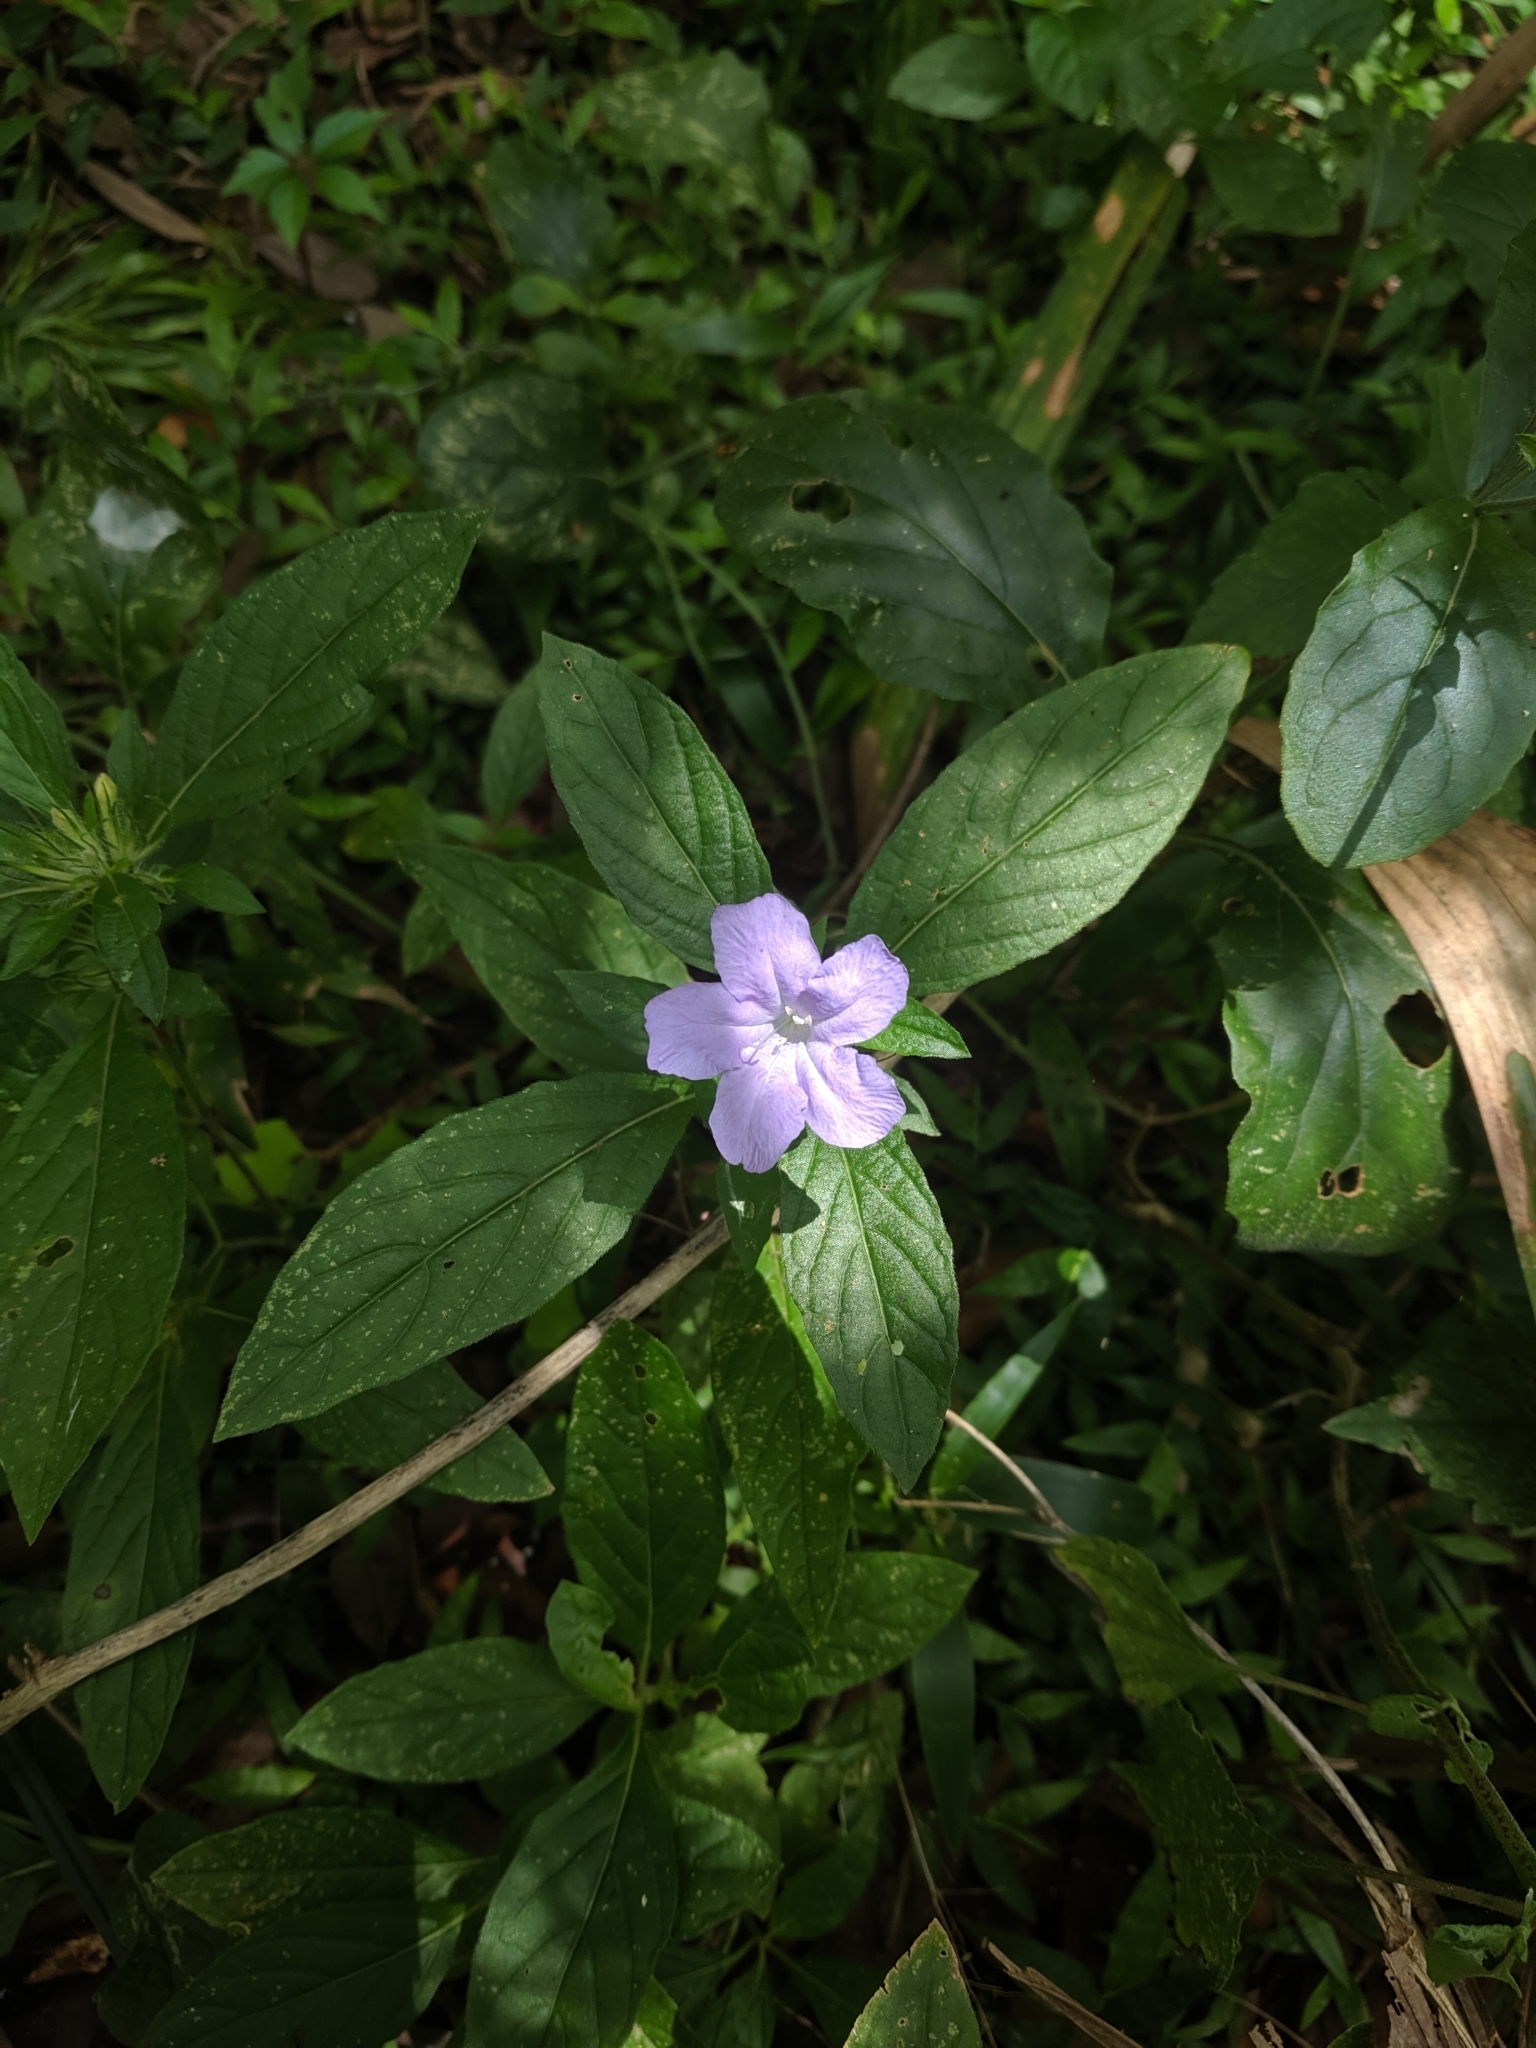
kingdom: Plantae
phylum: Tracheophyta
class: Magnoliopsida
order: Lamiales
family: Acanthaceae
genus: Ruellia
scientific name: Ruellia caroliniensis
